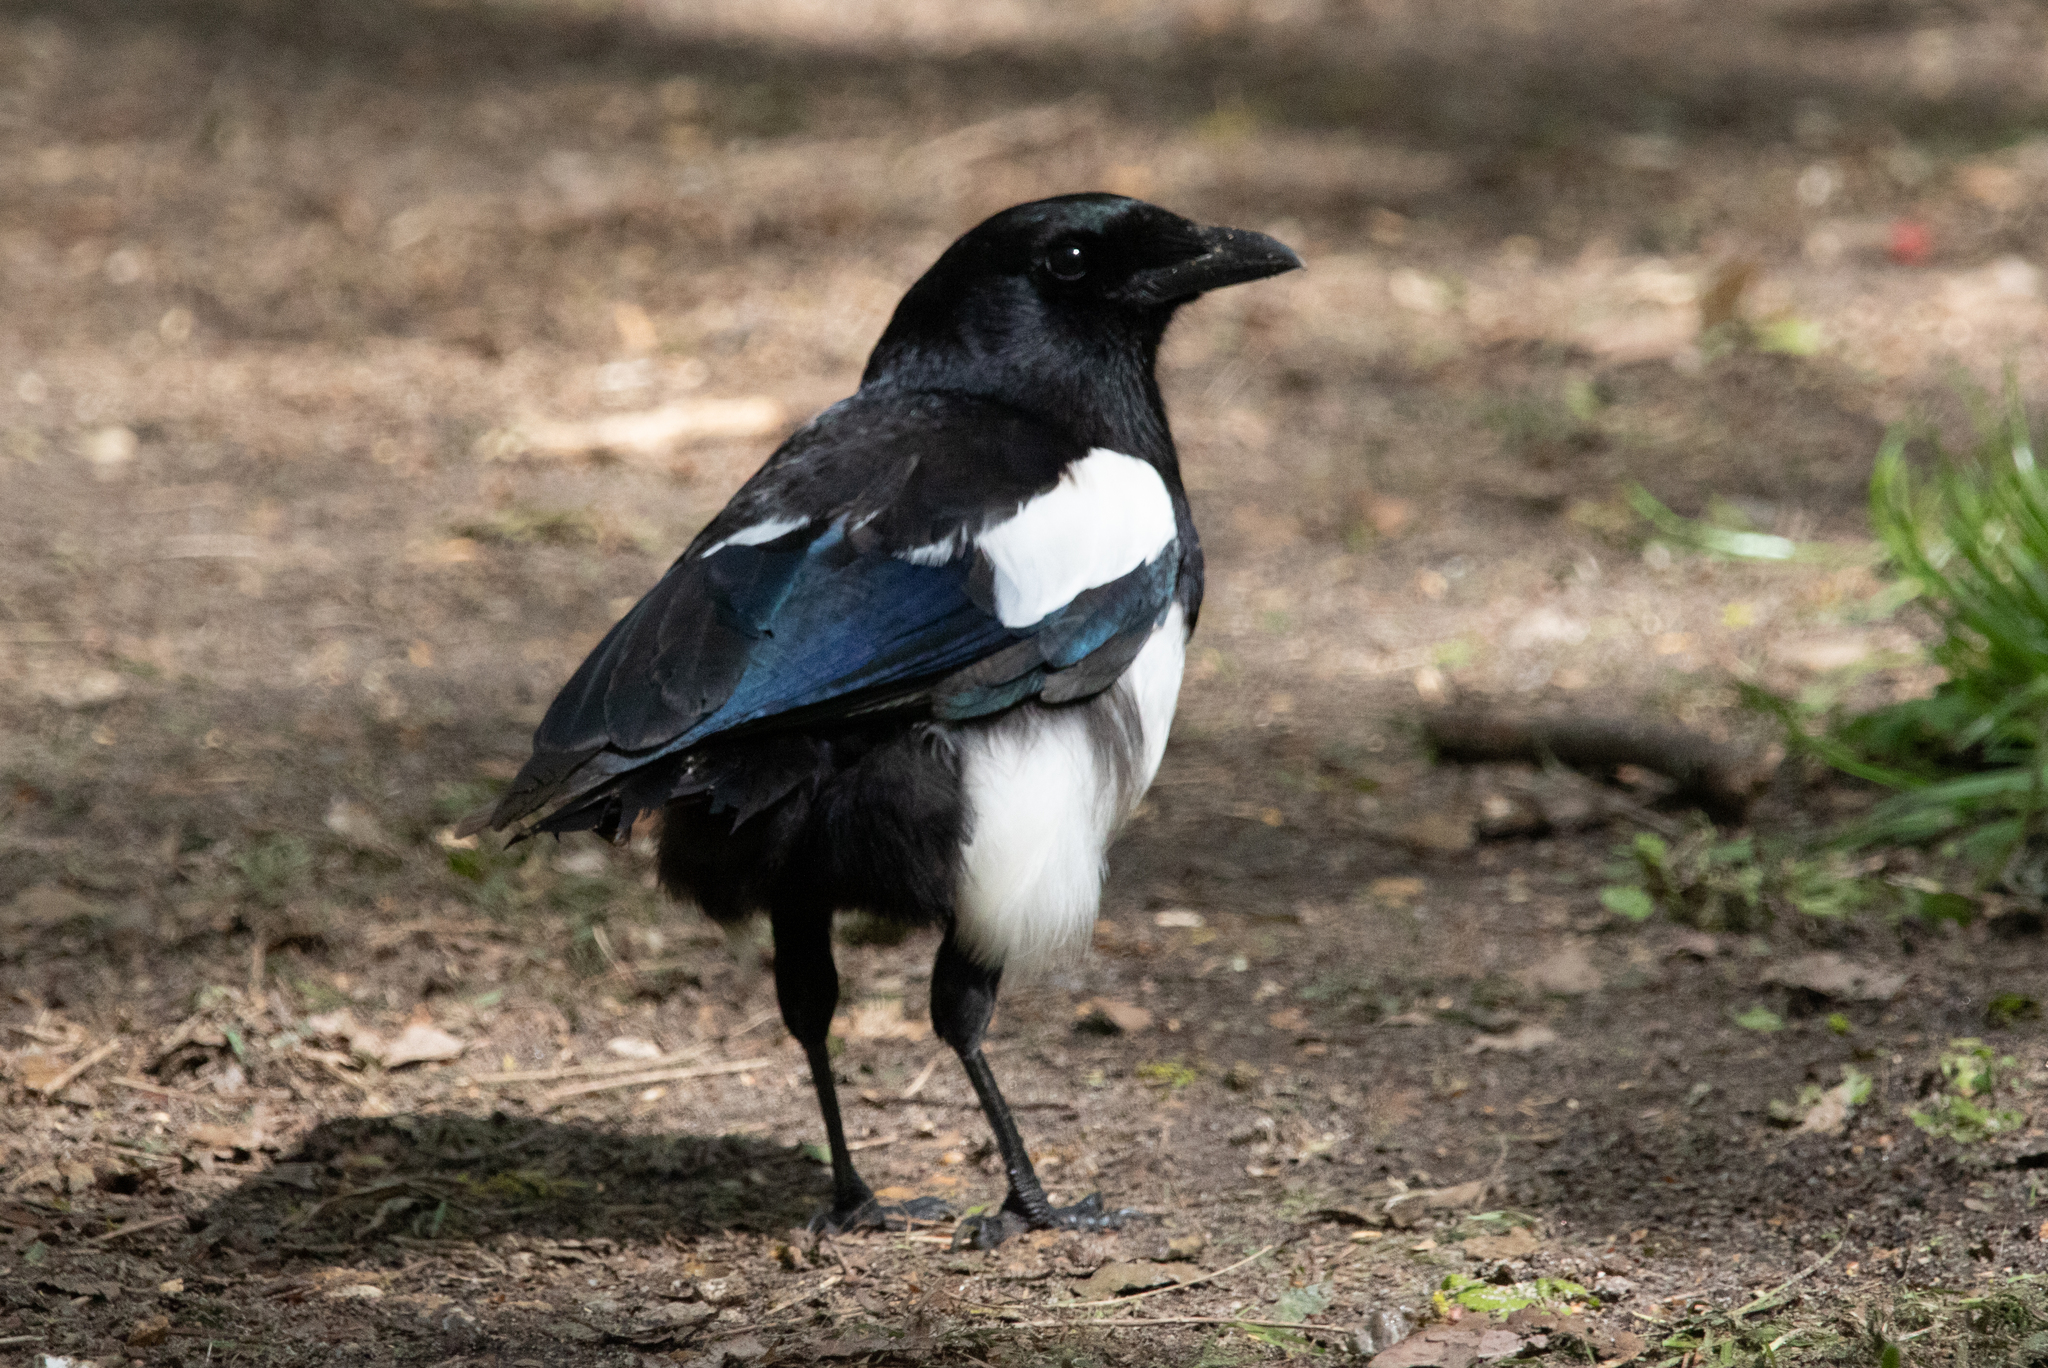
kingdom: Animalia
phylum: Chordata
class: Aves
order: Passeriformes
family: Corvidae
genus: Pica
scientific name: Pica pica
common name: Eurasian magpie
